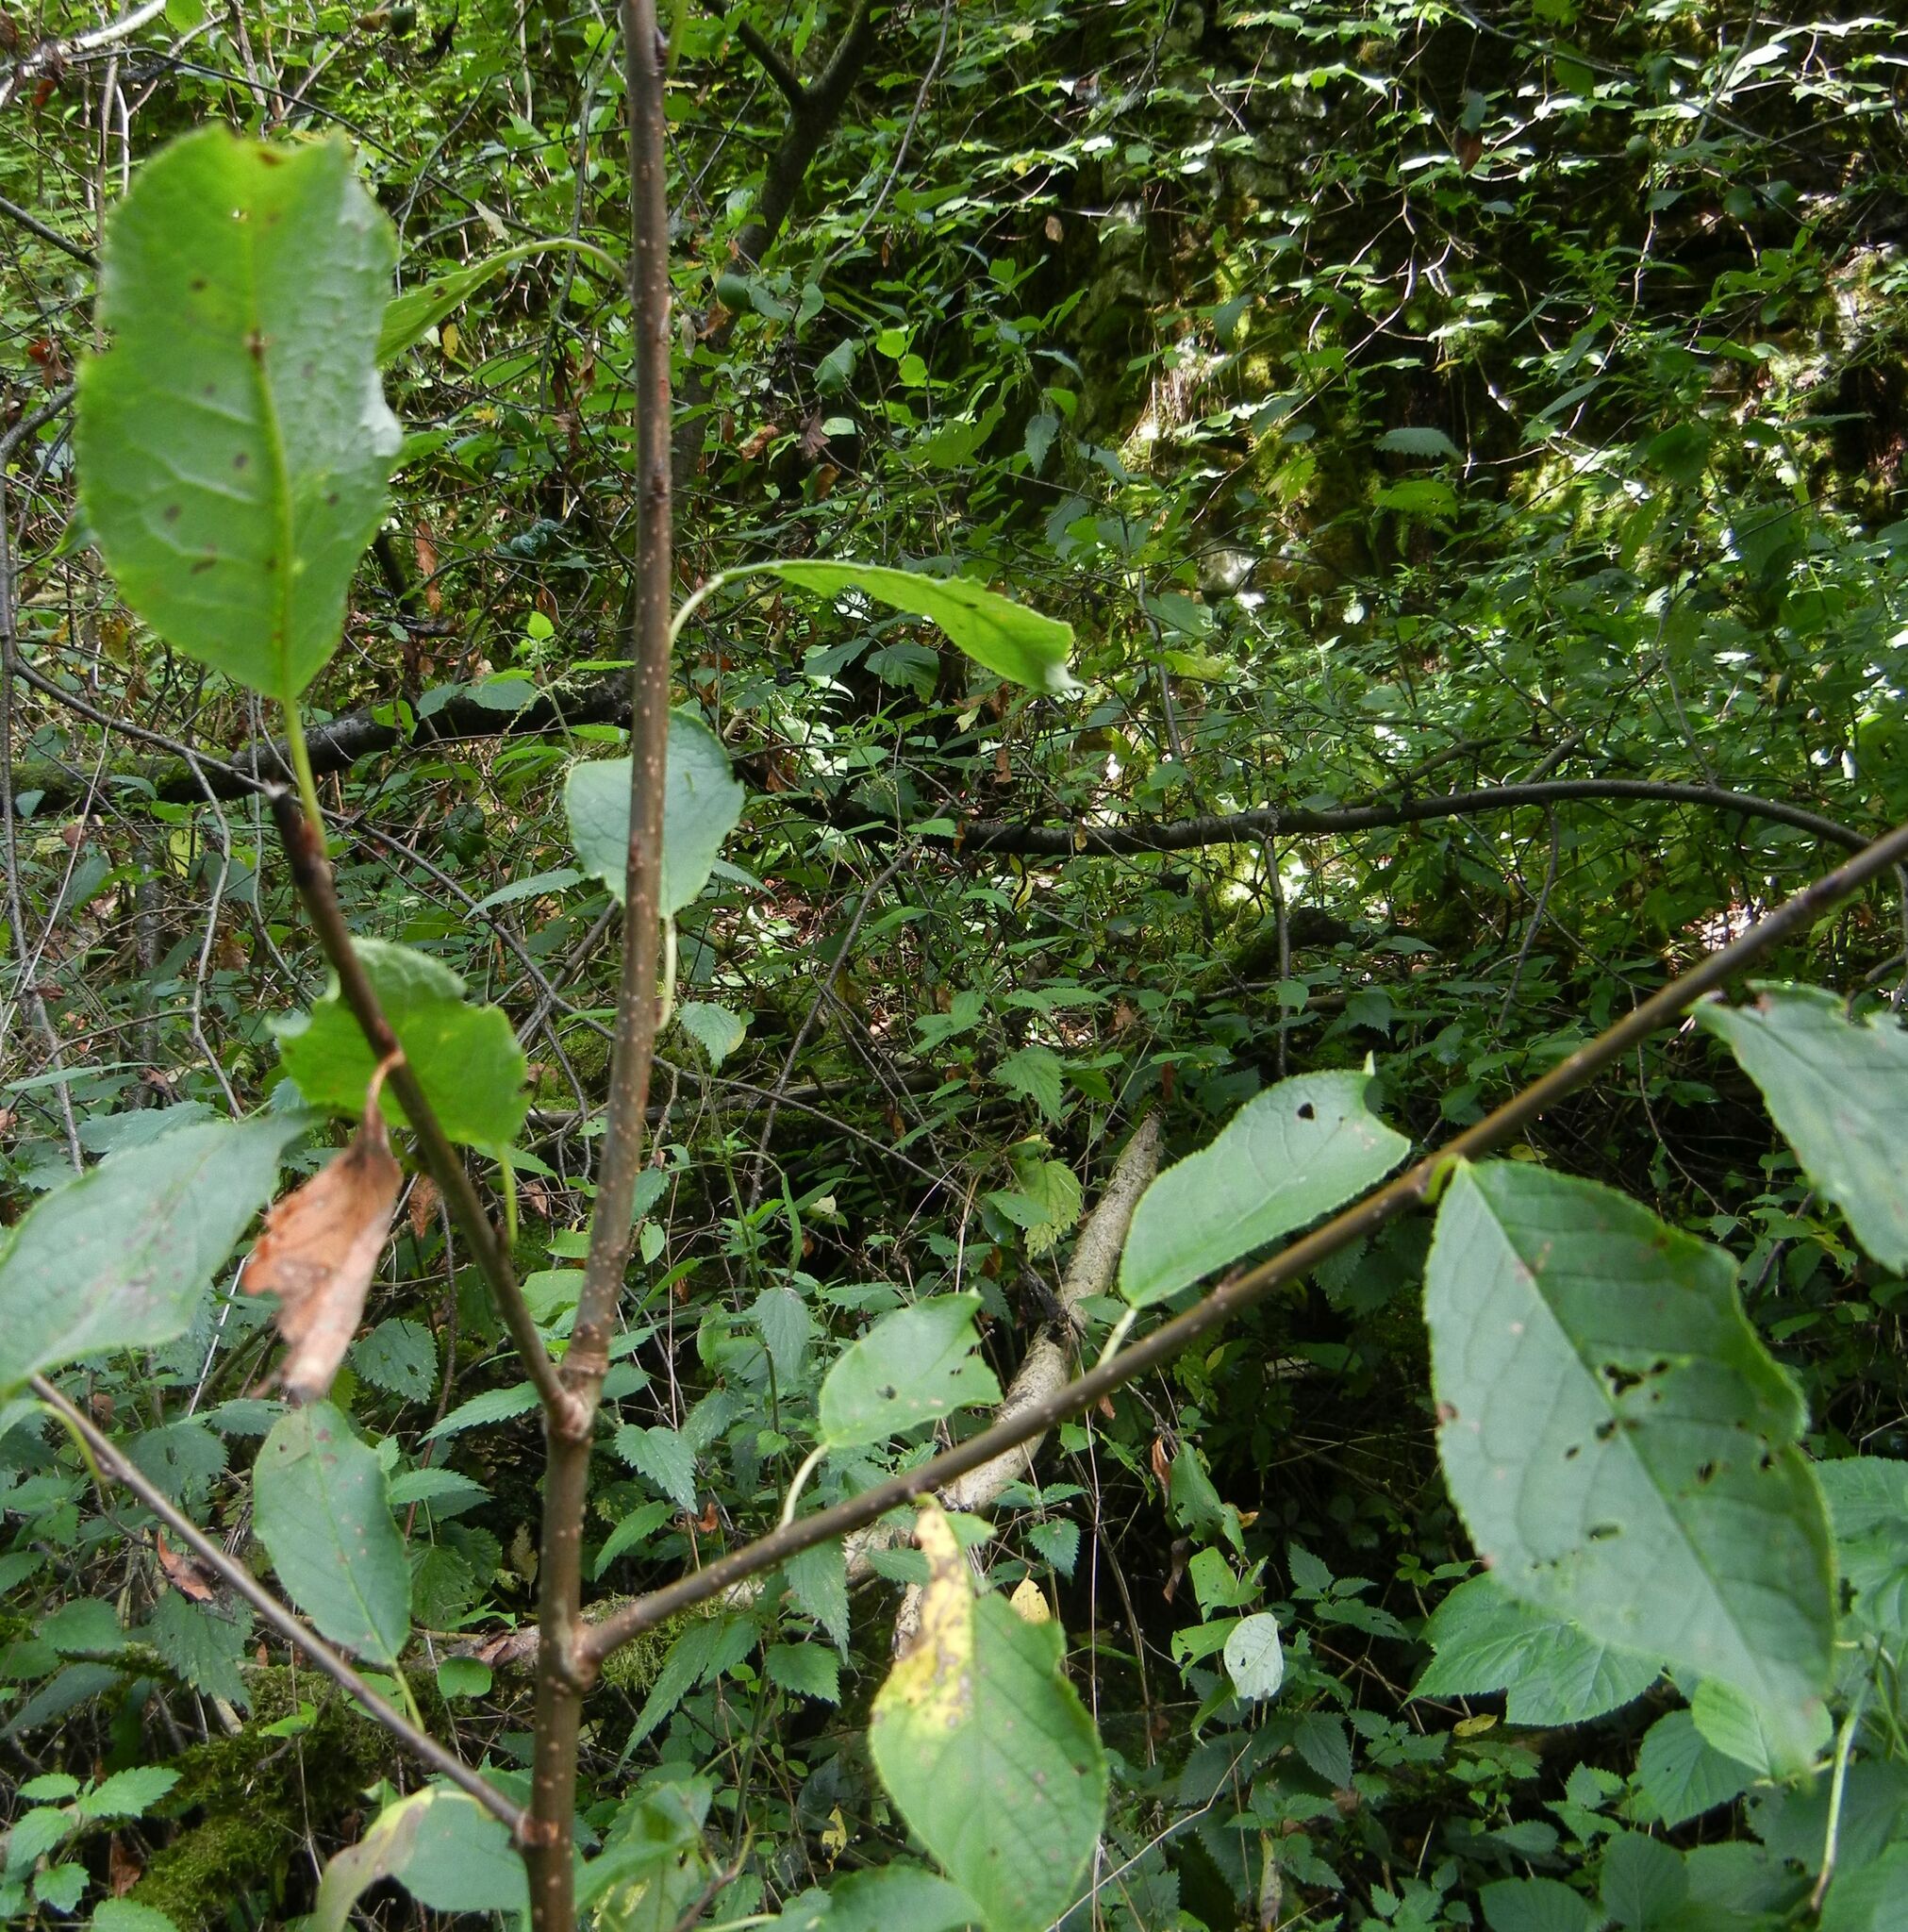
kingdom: Plantae
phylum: Tracheophyta
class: Magnoliopsida
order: Rosales
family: Rosaceae
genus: Prunus
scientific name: Prunus padus
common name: Bird cherry
